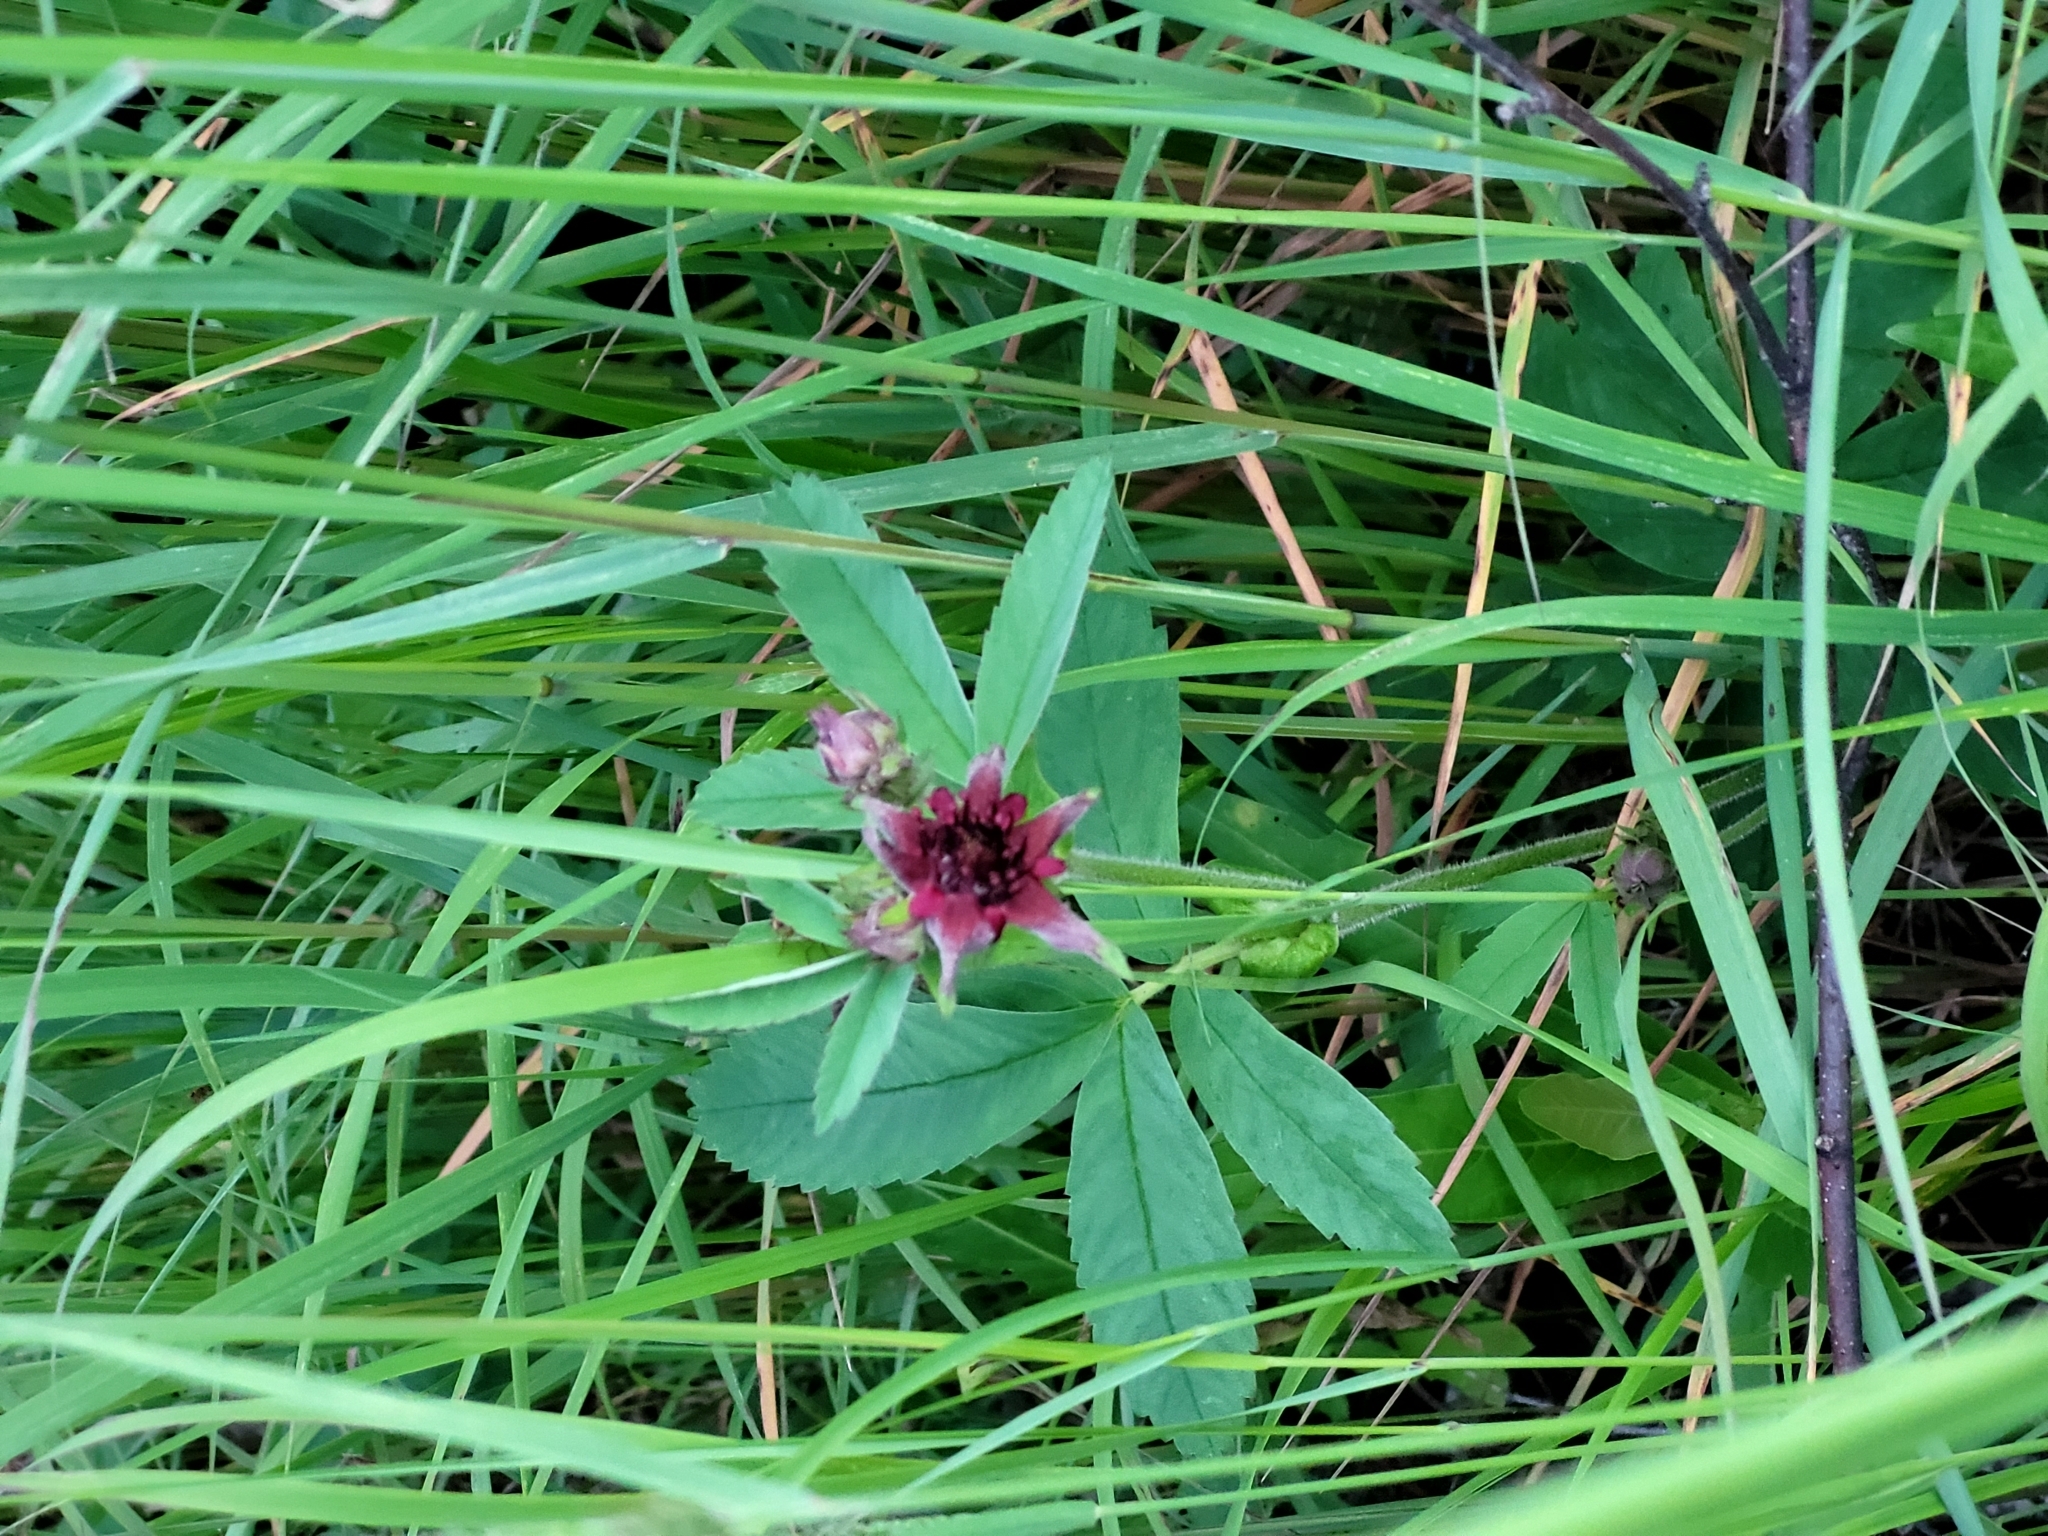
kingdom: Plantae
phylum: Tracheophyta
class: Magnoliopsida
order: Rosales
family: Rosaceae
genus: Comarum
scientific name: Comarum palustre
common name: Marsh cinquefoil
